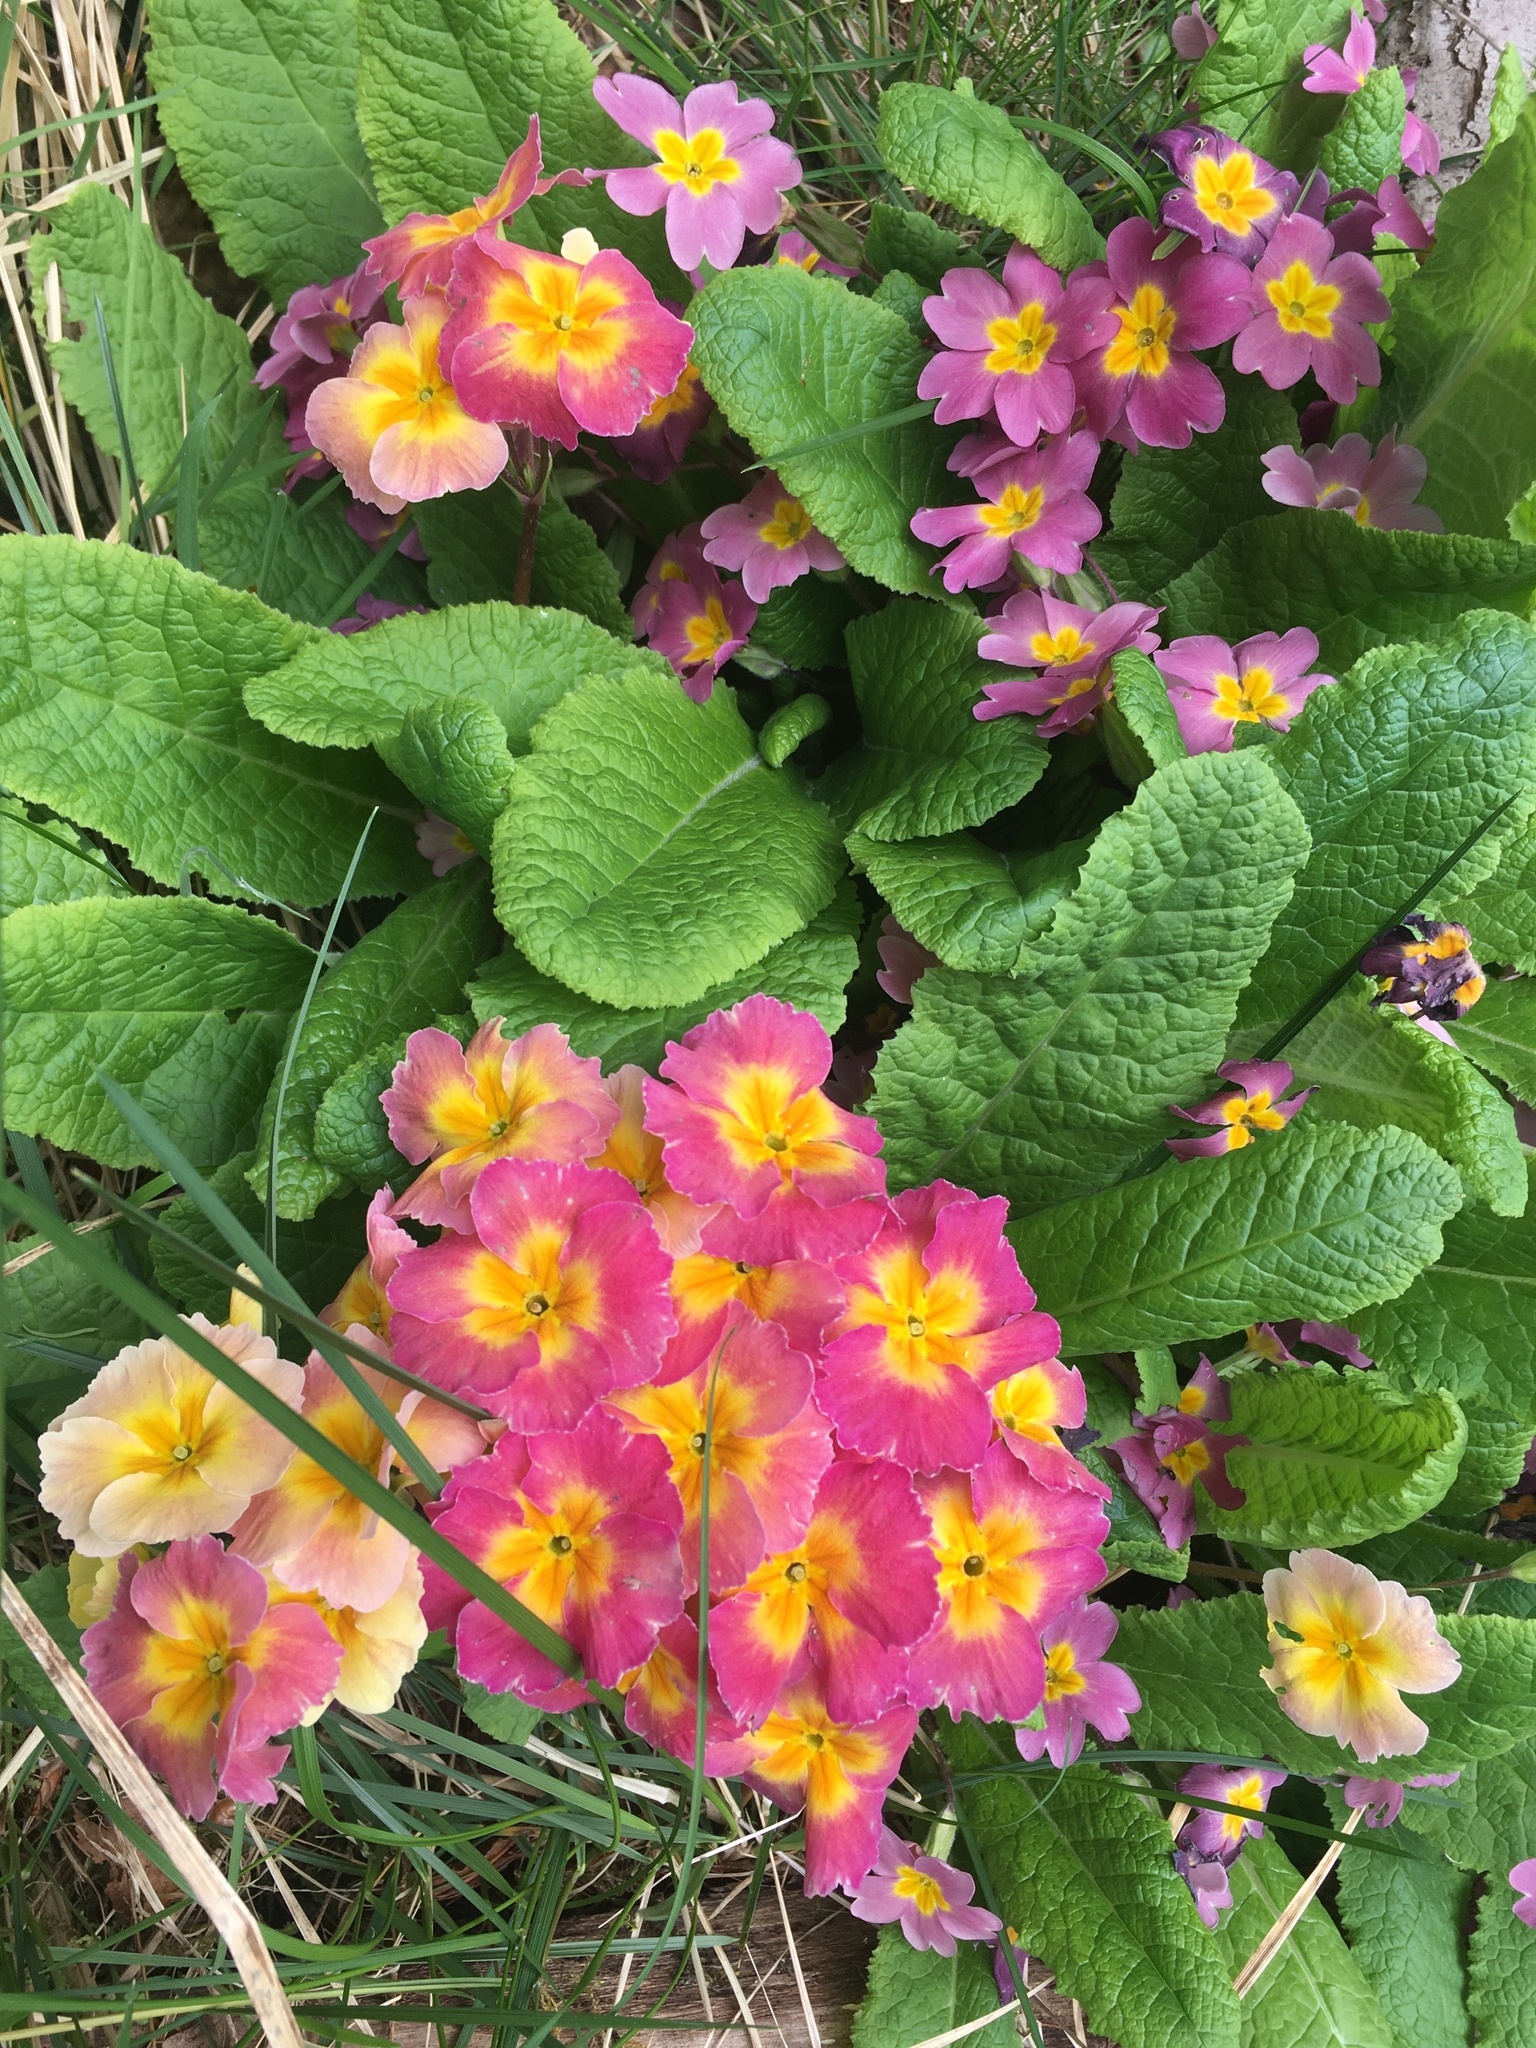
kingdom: Plantae
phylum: Tracheophyta
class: Magnoliopsida
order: Ericales
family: Primulaceae
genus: Primula
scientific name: Primula vulgaris
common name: Primrose
